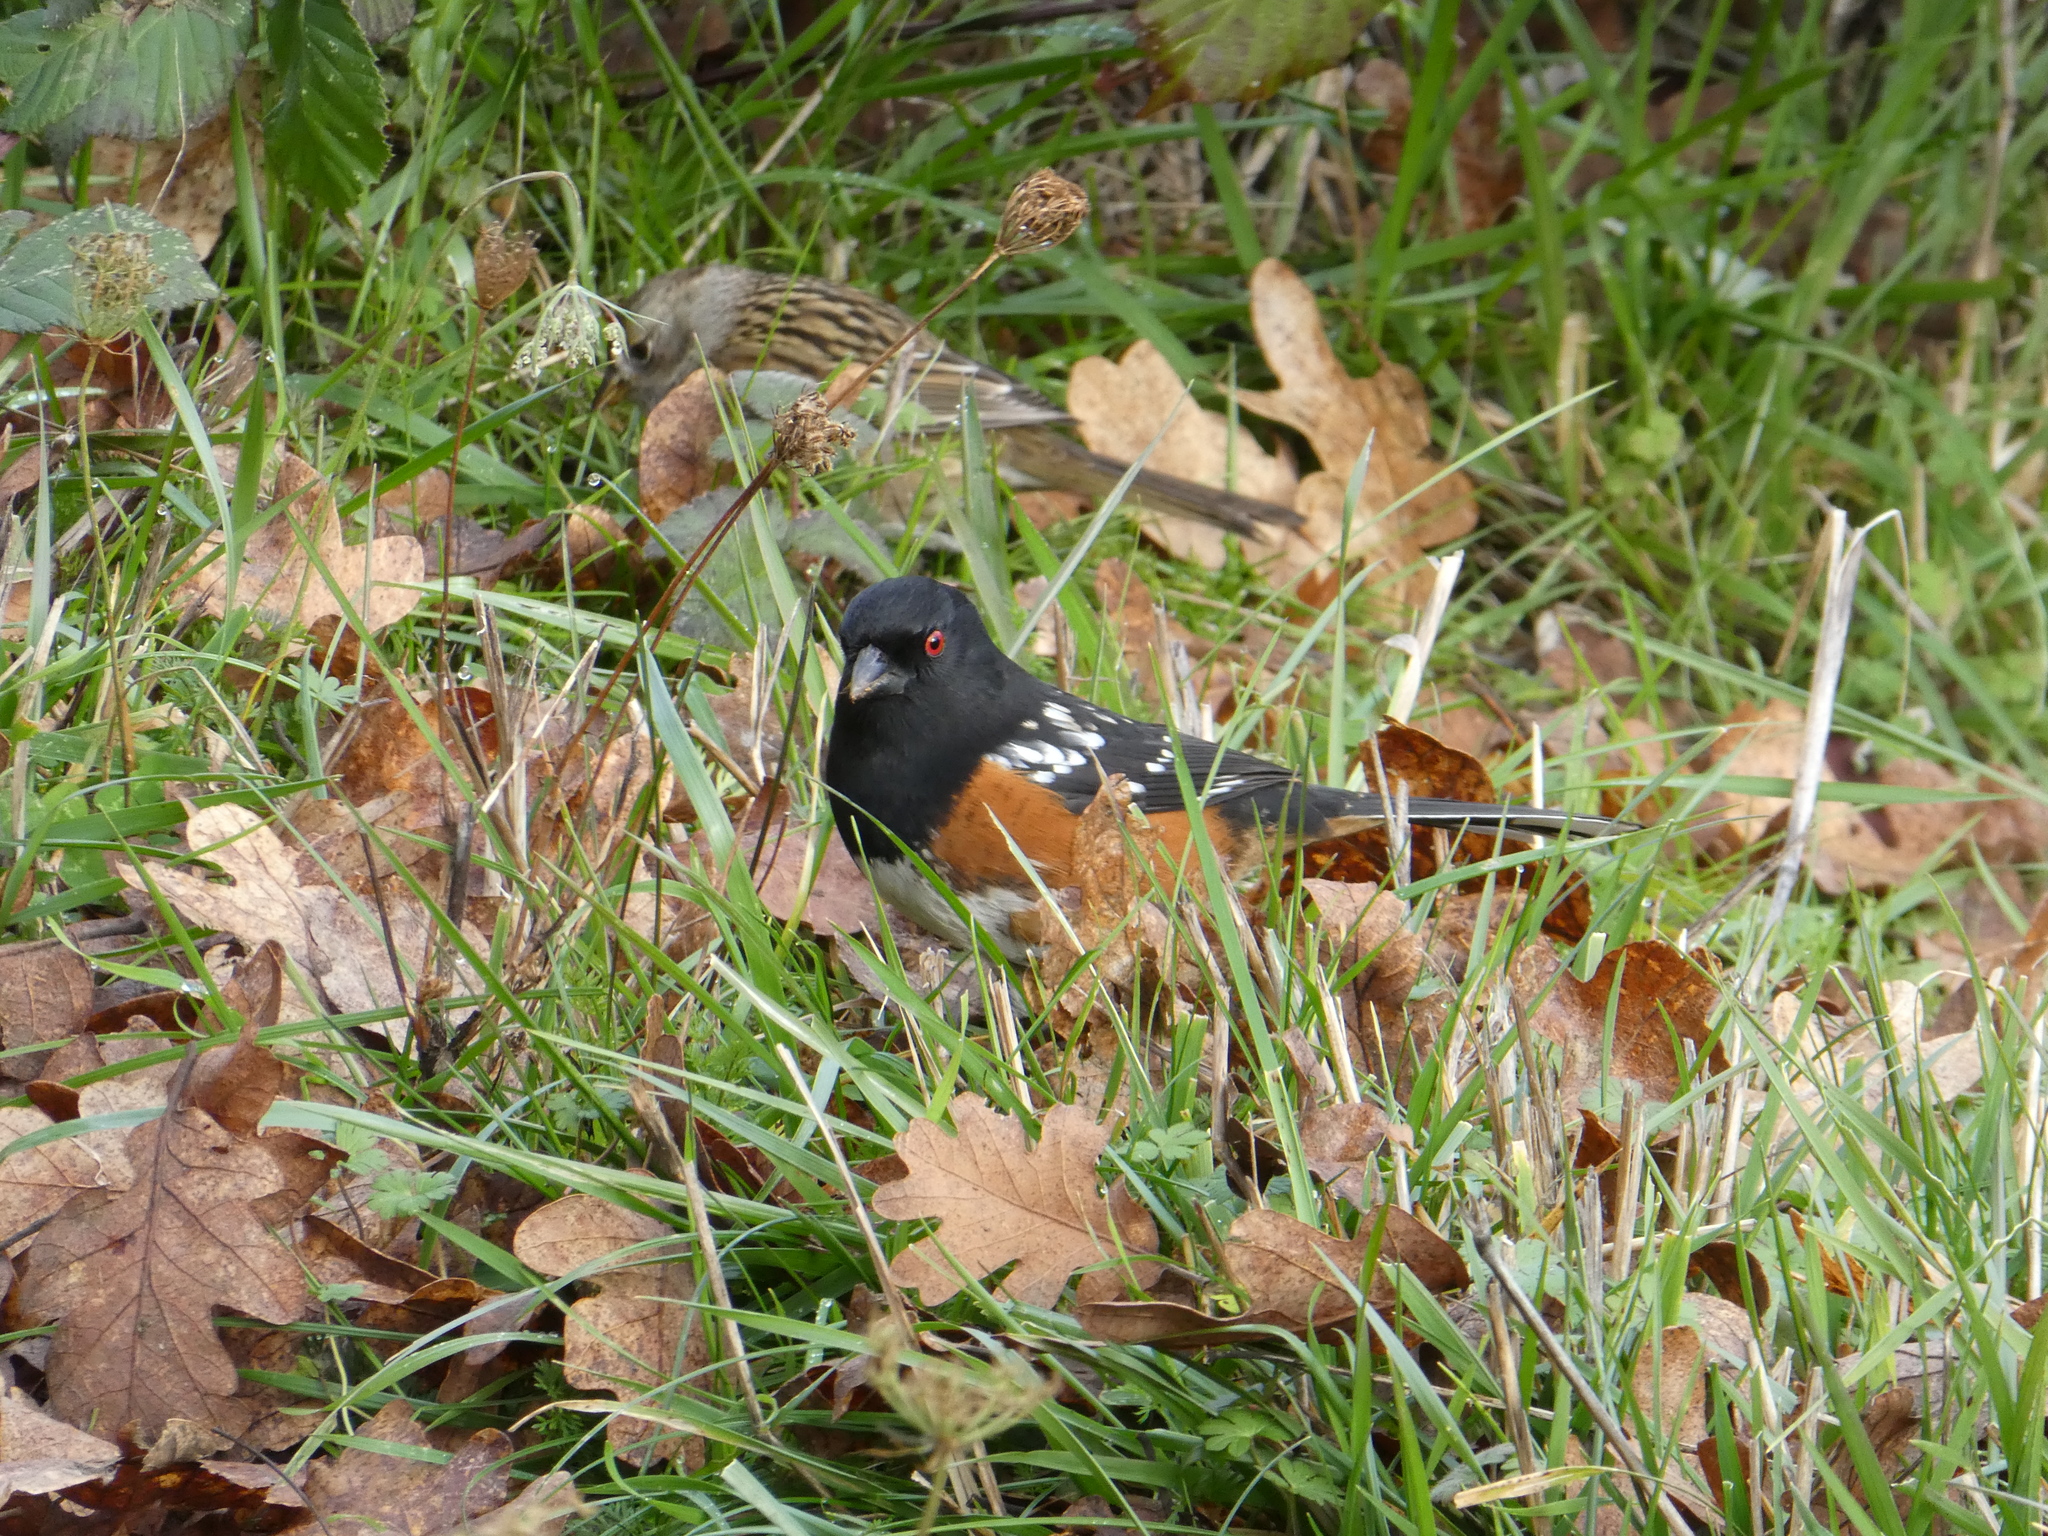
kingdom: Animalia
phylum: Chordata
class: Aves
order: Passeriformes
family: Passerellidae
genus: Pipilo
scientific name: Pipilo maculatus
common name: Spotted towhee
